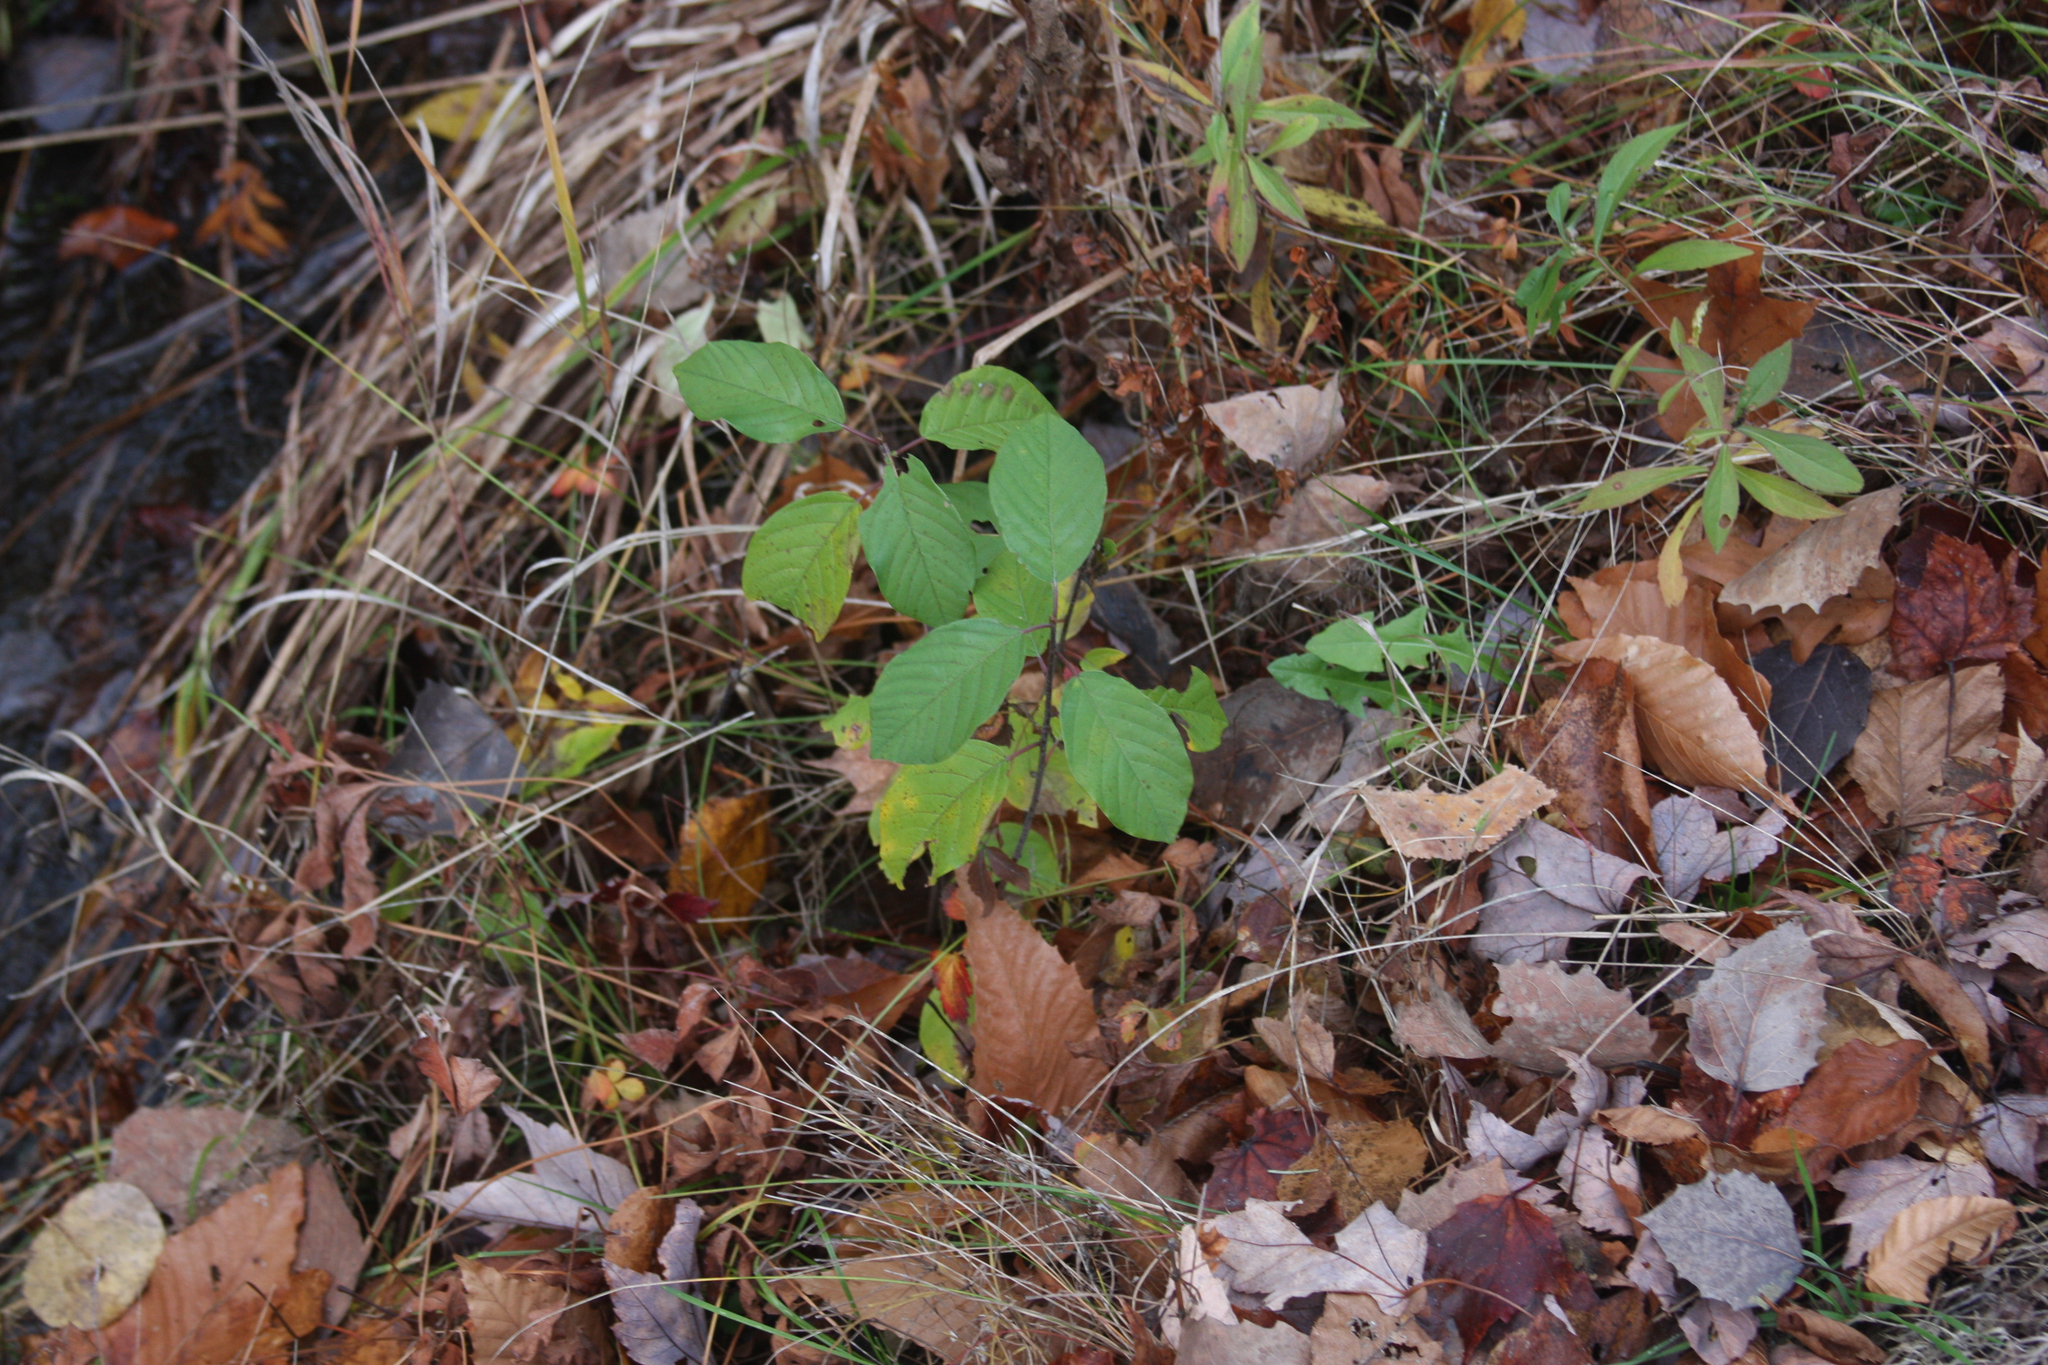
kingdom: Plantae
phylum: Tracheophyta
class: Magnoliopsida
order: Rosales
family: Rhamnaceae
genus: Frangula
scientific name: Frangula alnus
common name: Alder buckthorn
